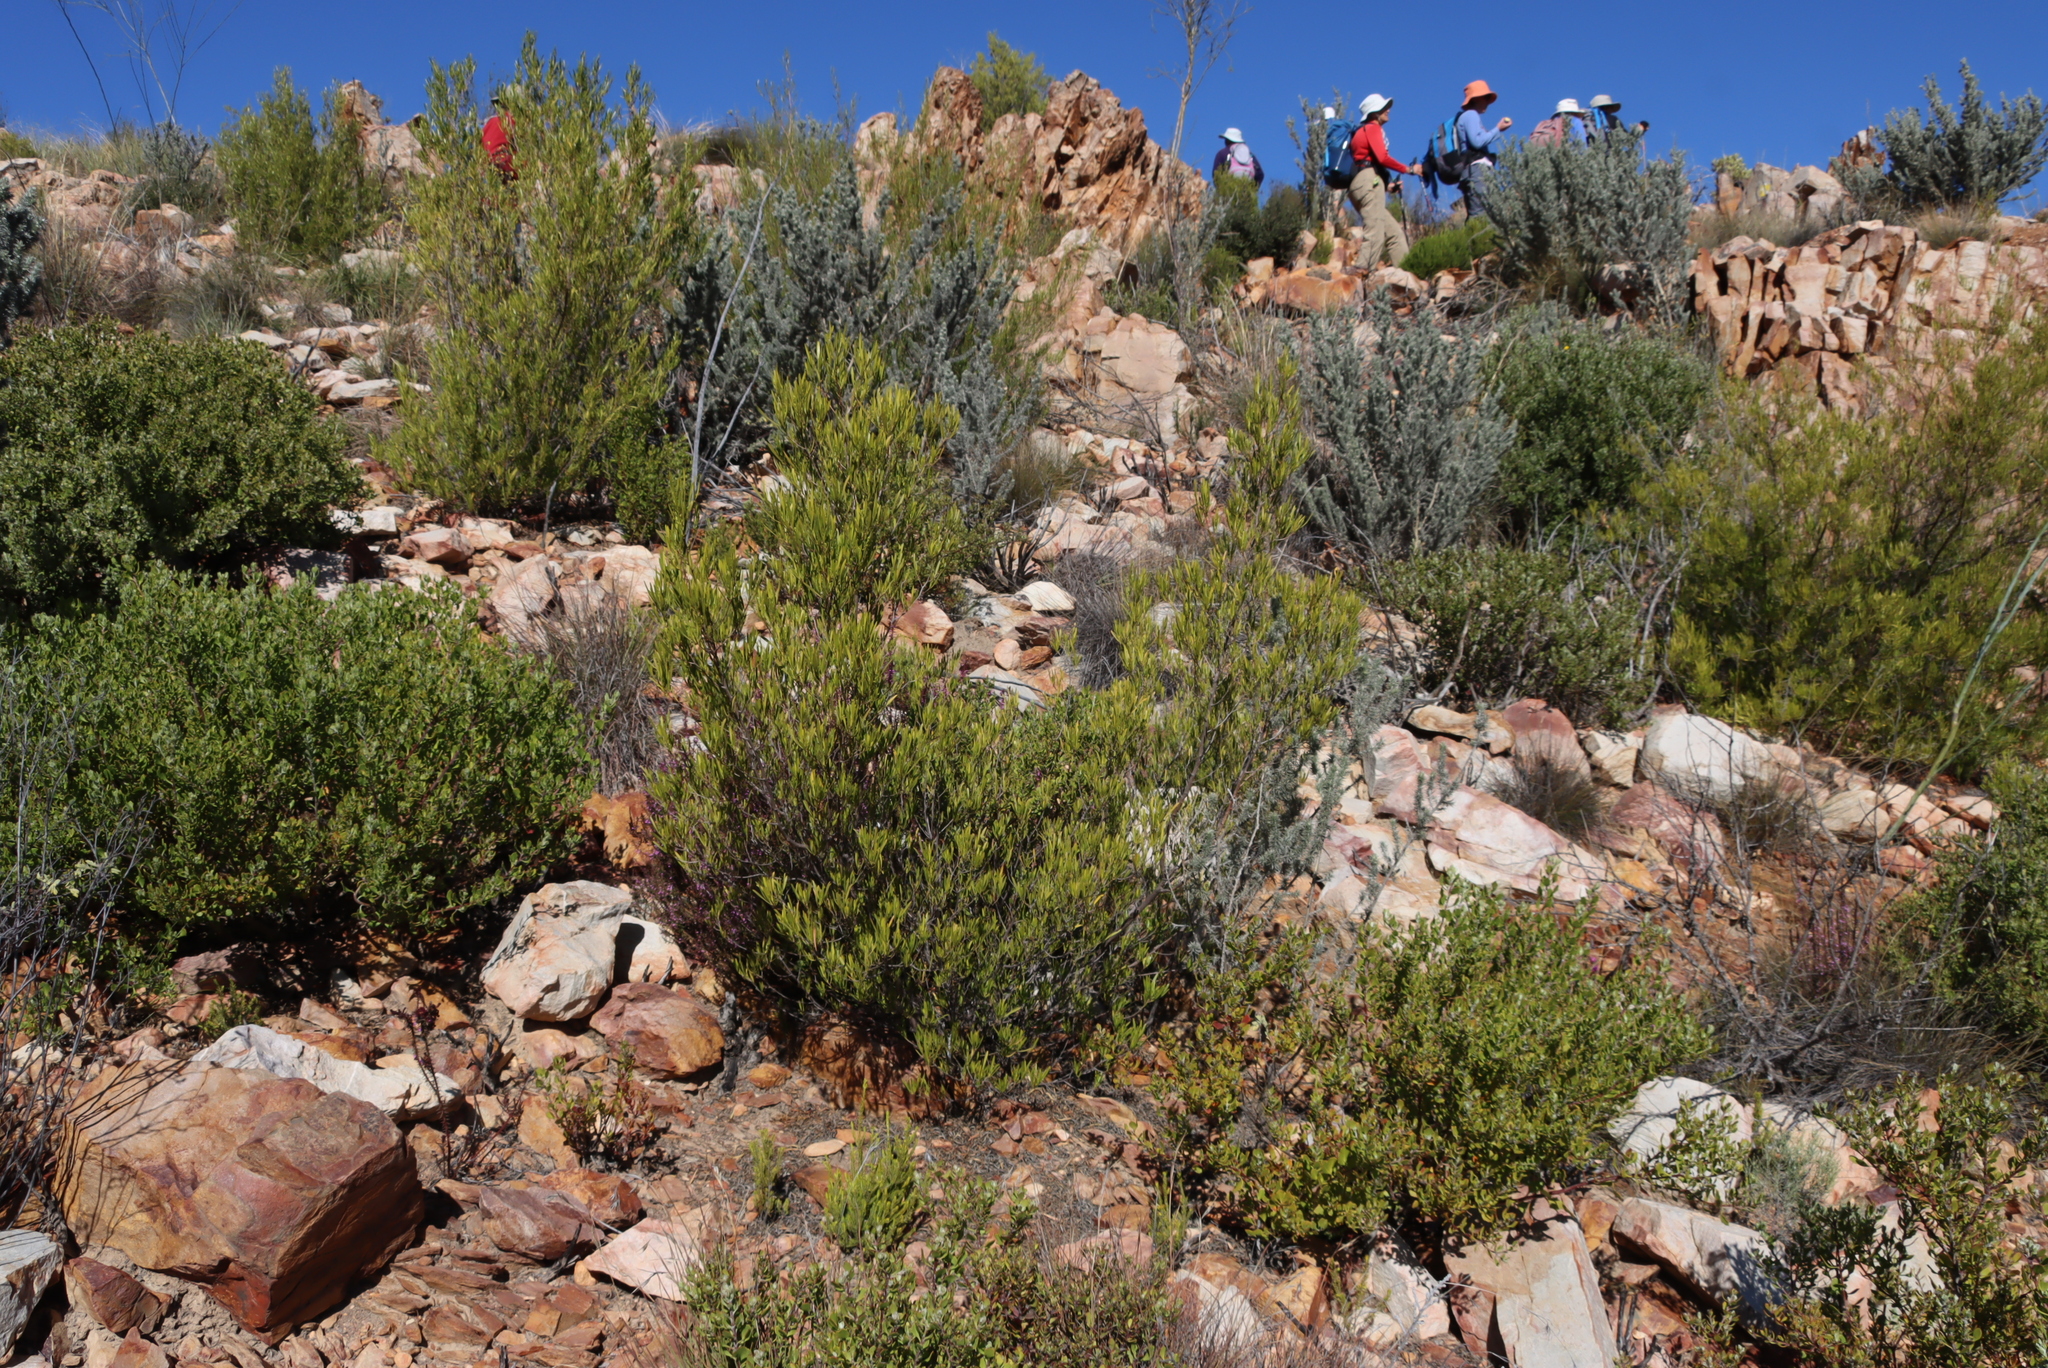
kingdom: Plantae
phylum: Tracheophyta
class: Magnoliopsida
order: Sapindales
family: Sapindaceae
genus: Dodonaea
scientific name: Dodonaea viscosa
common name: Hopbush
